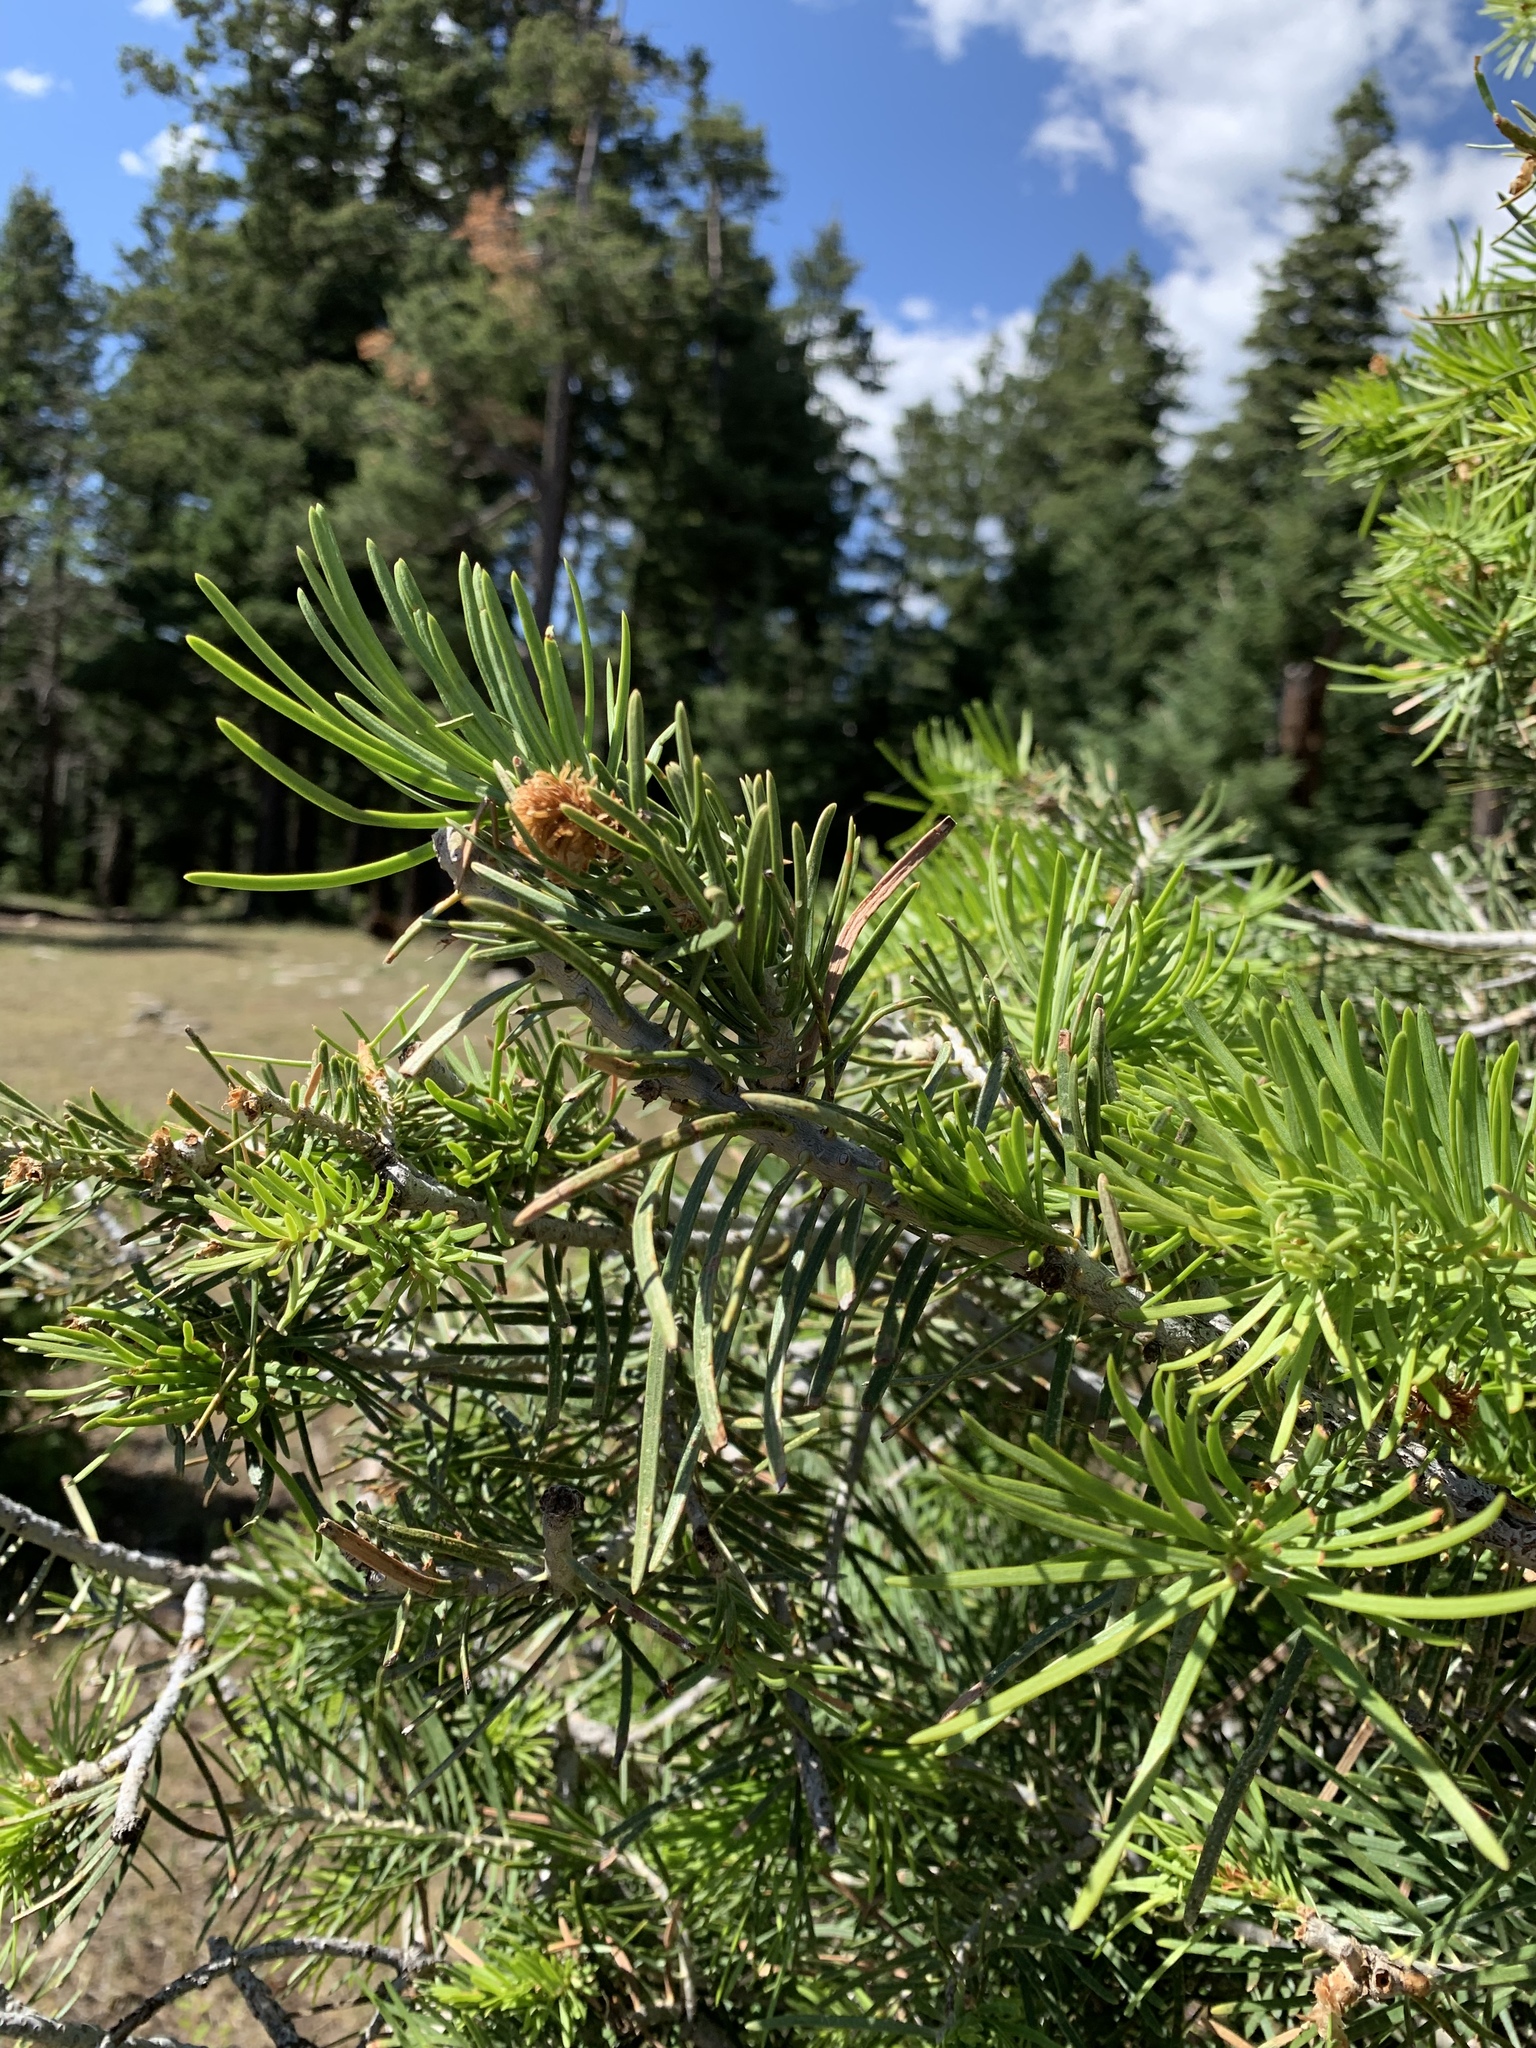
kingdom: Plantae
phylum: Tracheophyta
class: Pinopsida
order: Pinales
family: Pinaceae
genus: Abies
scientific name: Abies concolor
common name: Colorado fir
